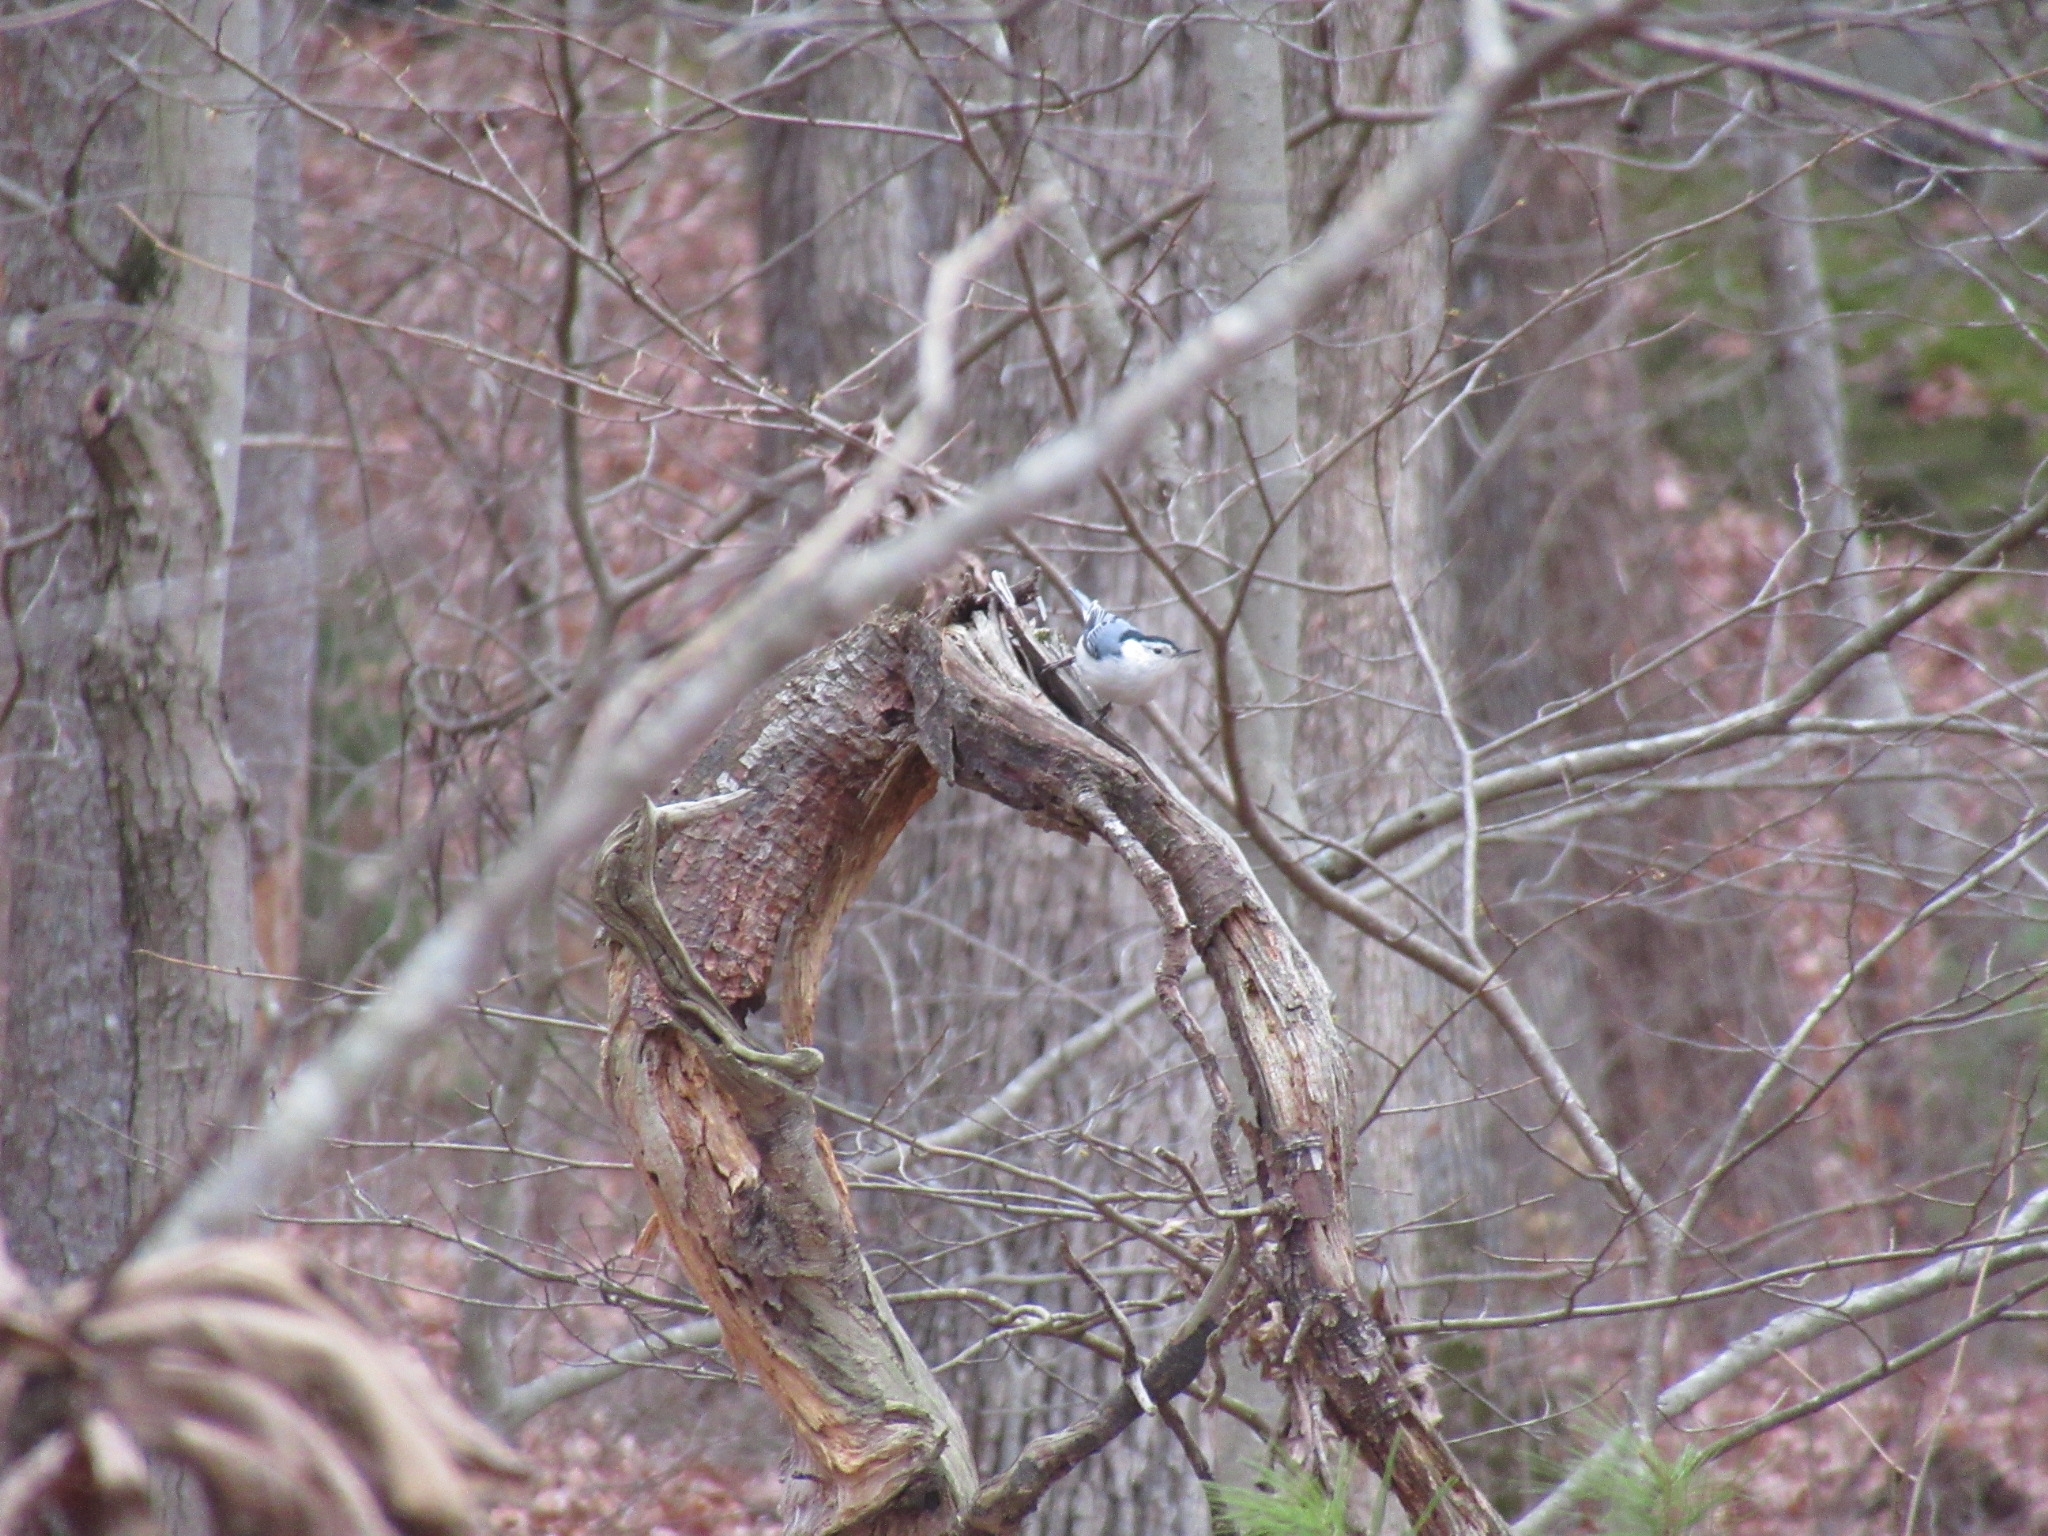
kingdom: Animalia
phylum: Chordata
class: Aves
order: Passeriformes
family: Sittidae
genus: Sitta
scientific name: Sitta carolinensis
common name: White-breasted nuthatch
